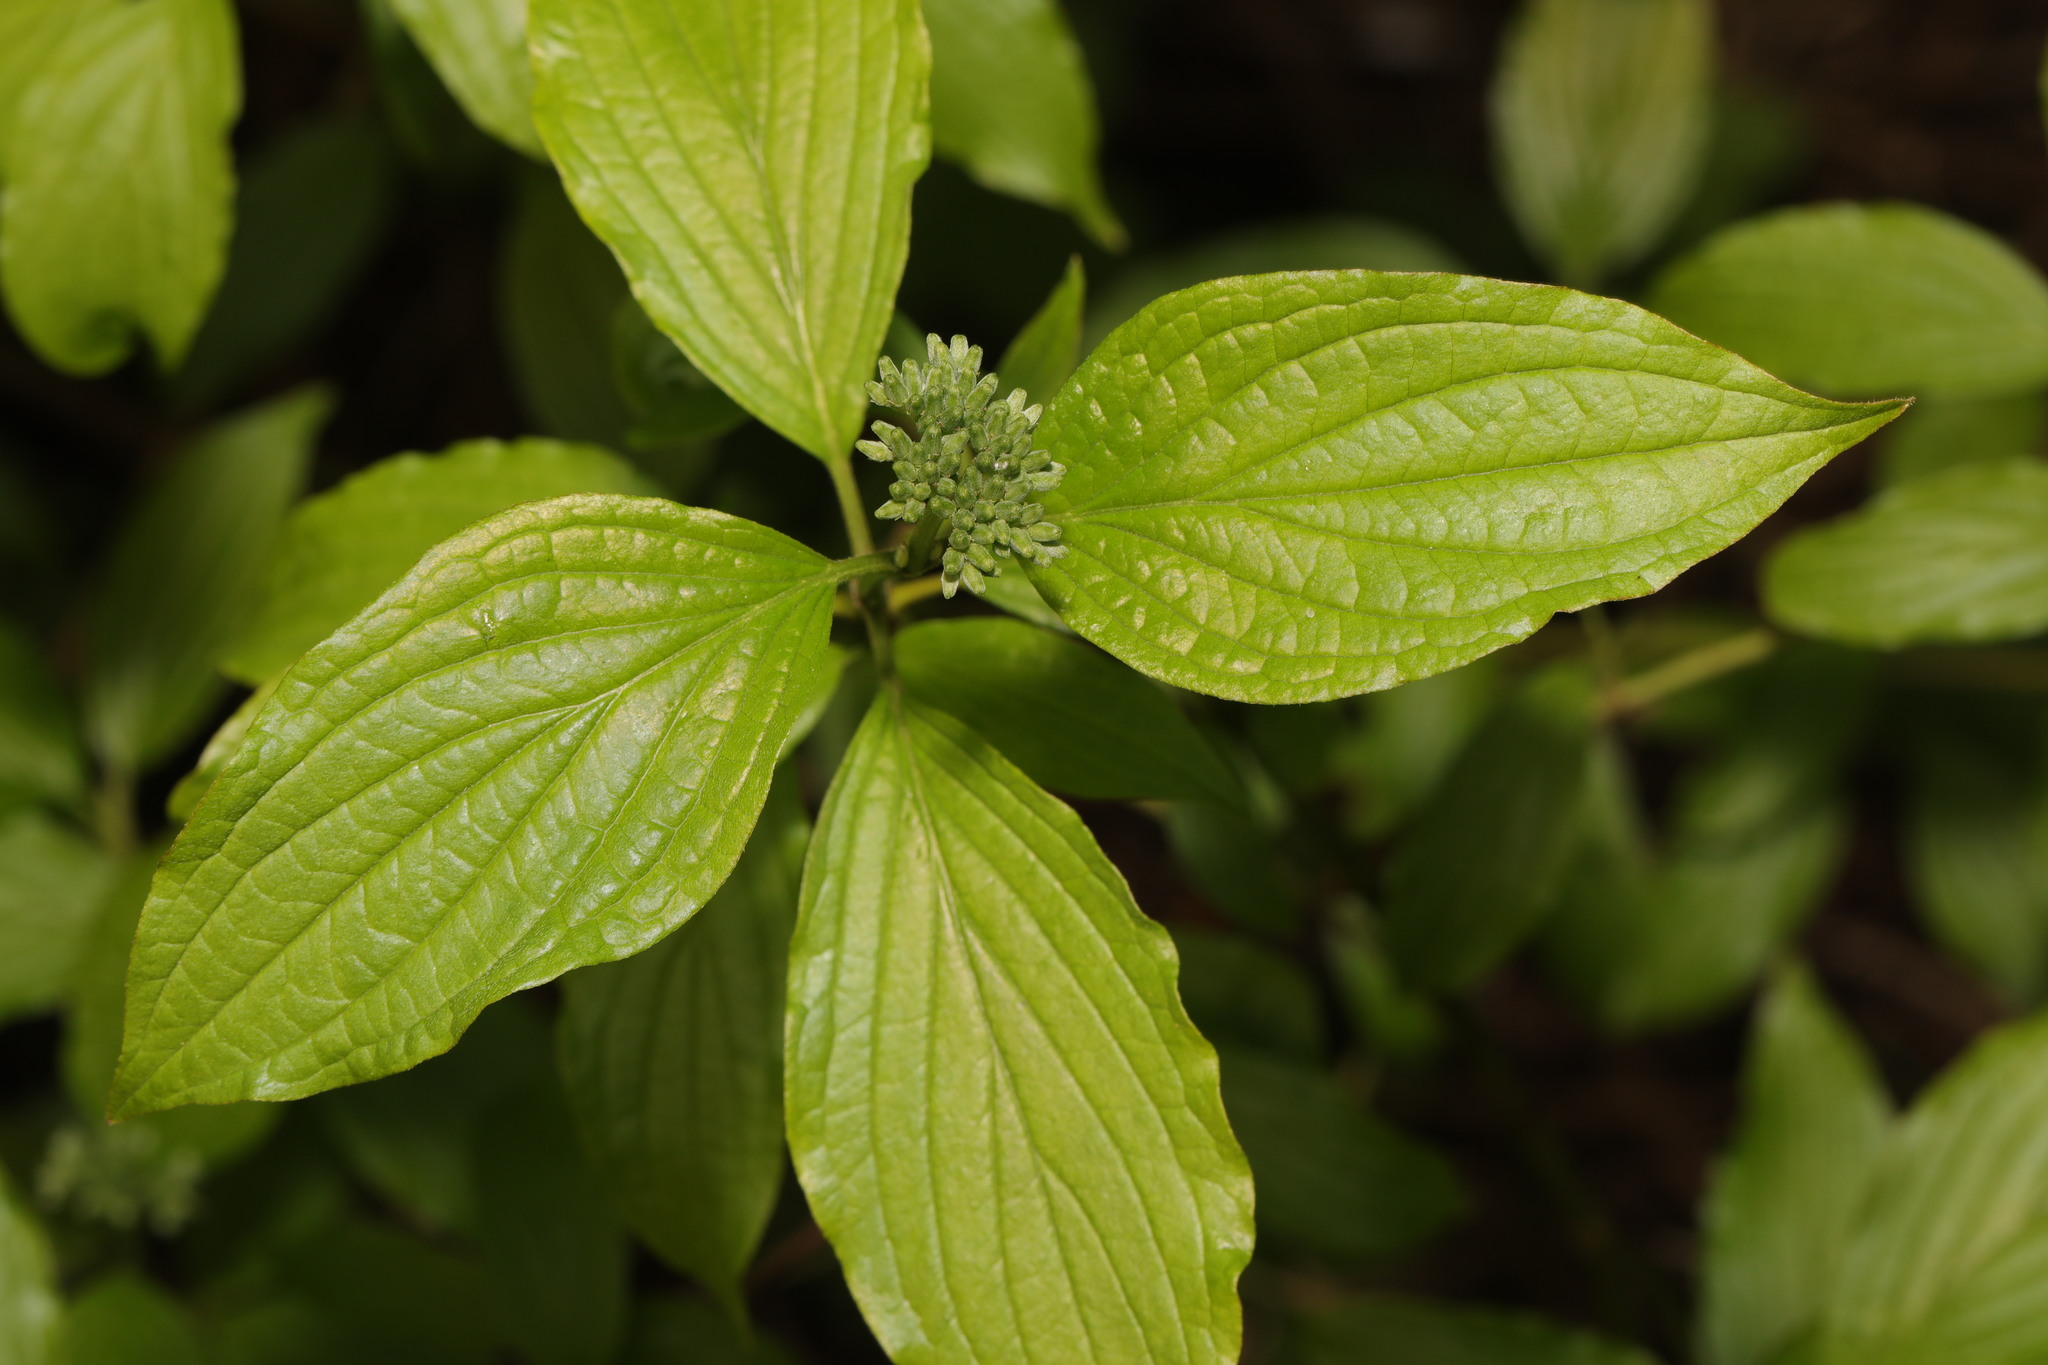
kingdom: Plantae
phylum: Tracheophyta
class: Magnoliopsida
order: Cornales
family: Cornaceae
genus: Cornus
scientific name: Cornus sanguinea
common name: Dogwood
